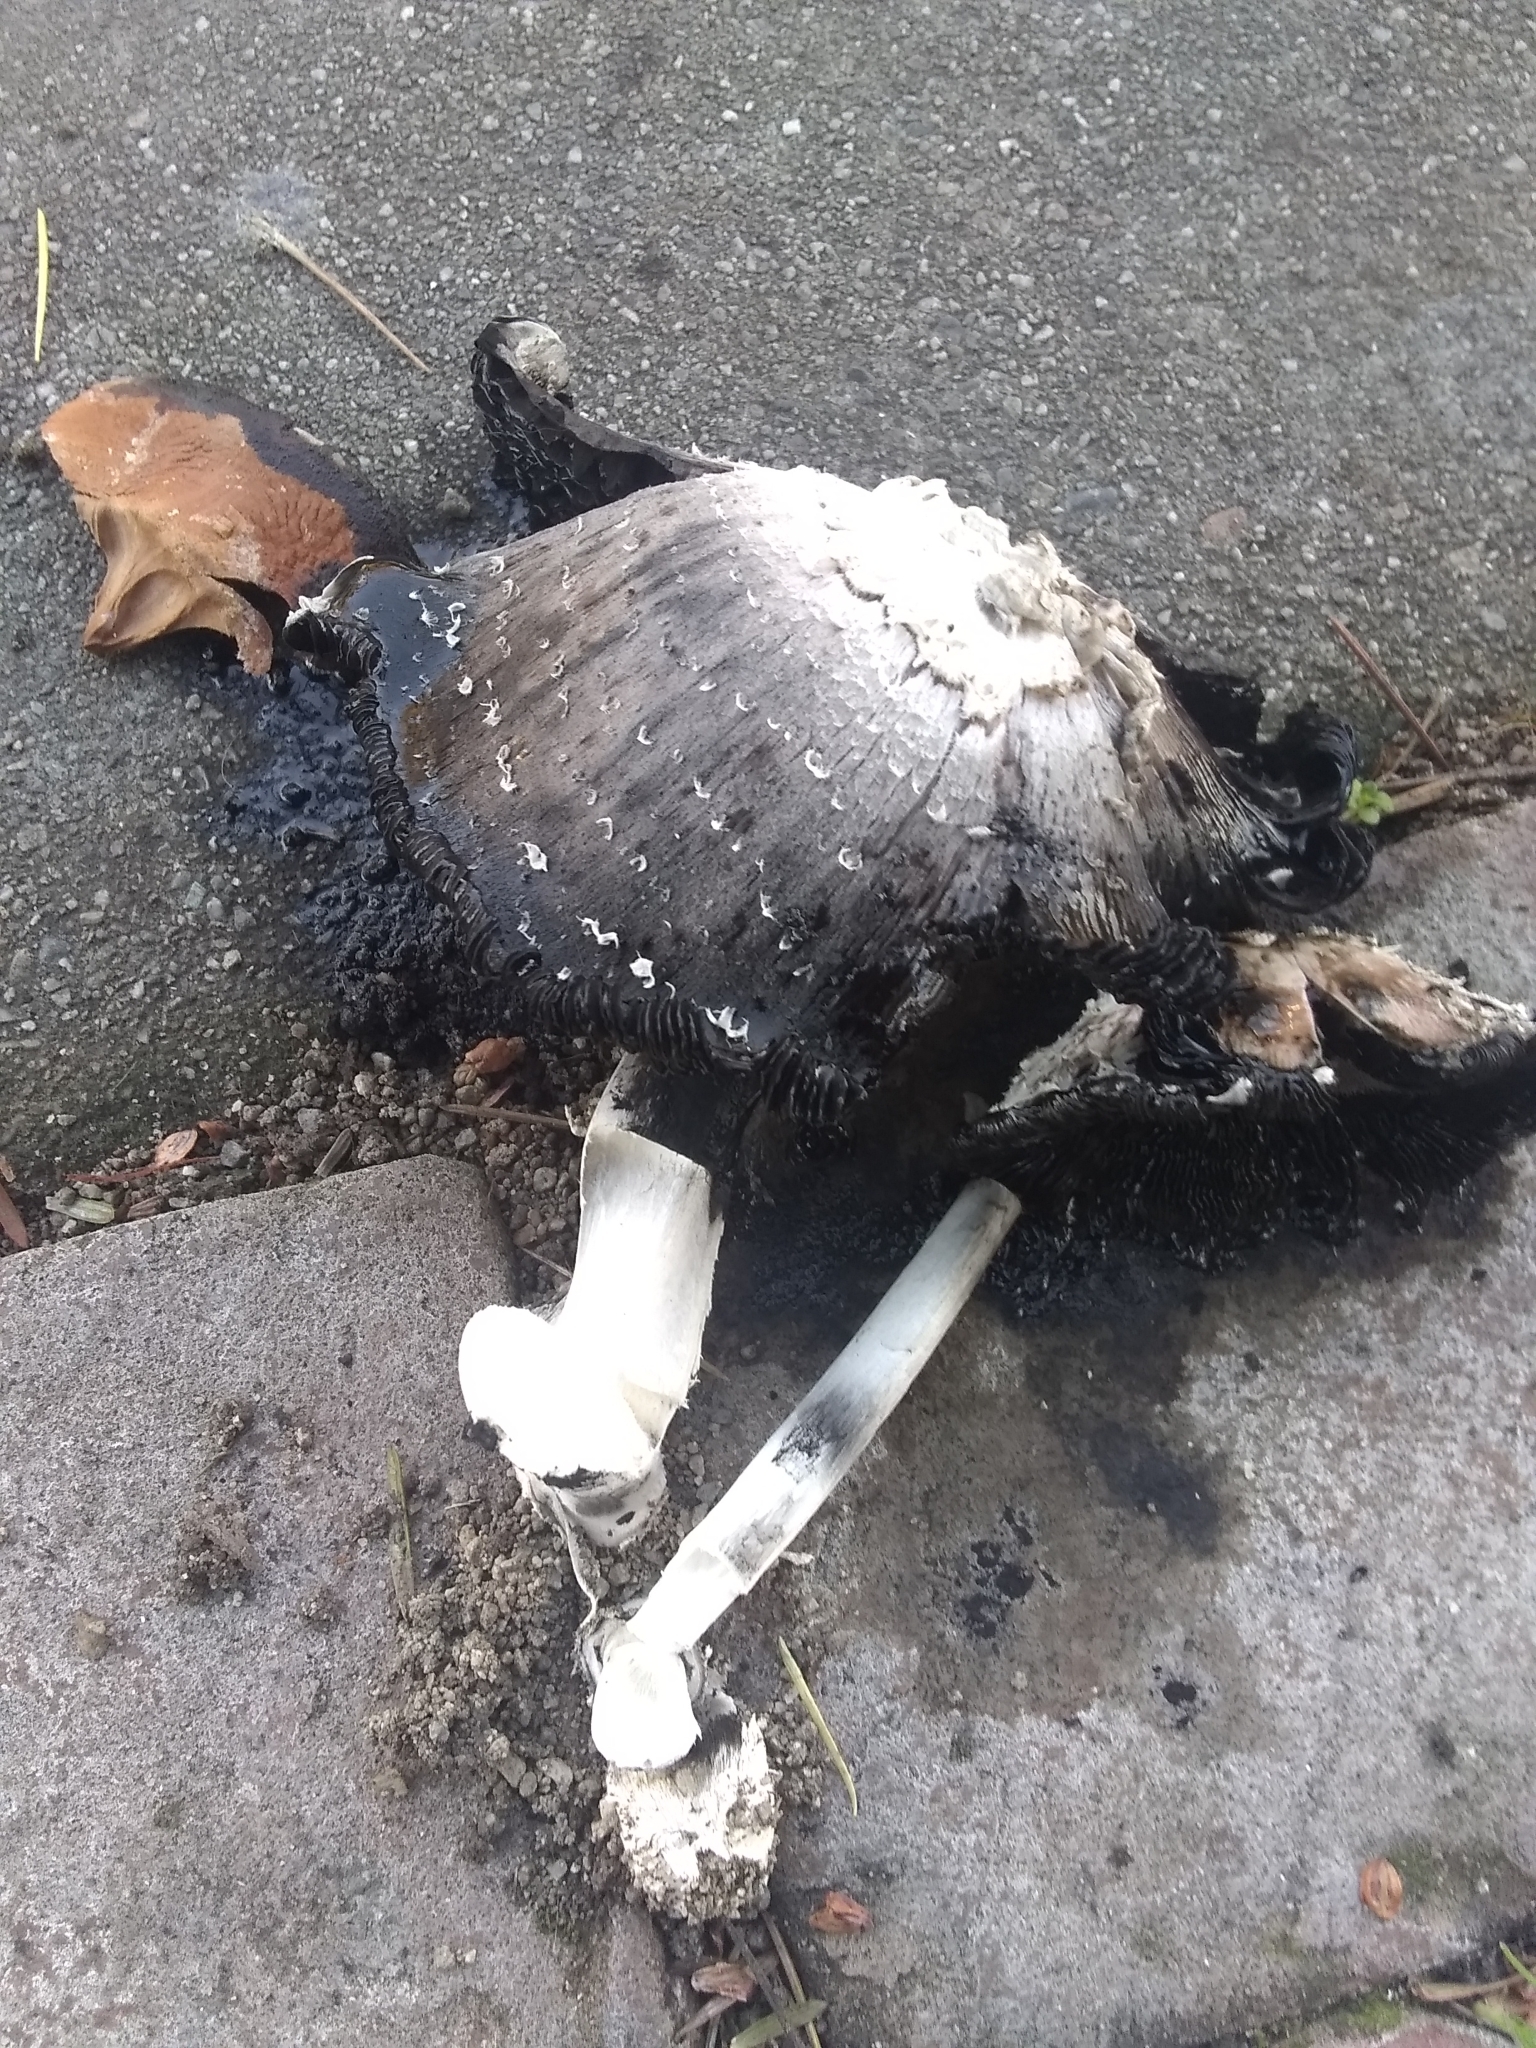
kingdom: Fungi
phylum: Basidiomycota
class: Agaricomycetes
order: Agaricales
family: Agaricaceae
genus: Coprinus
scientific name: Coprinus comatus
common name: Lawyer's wig
